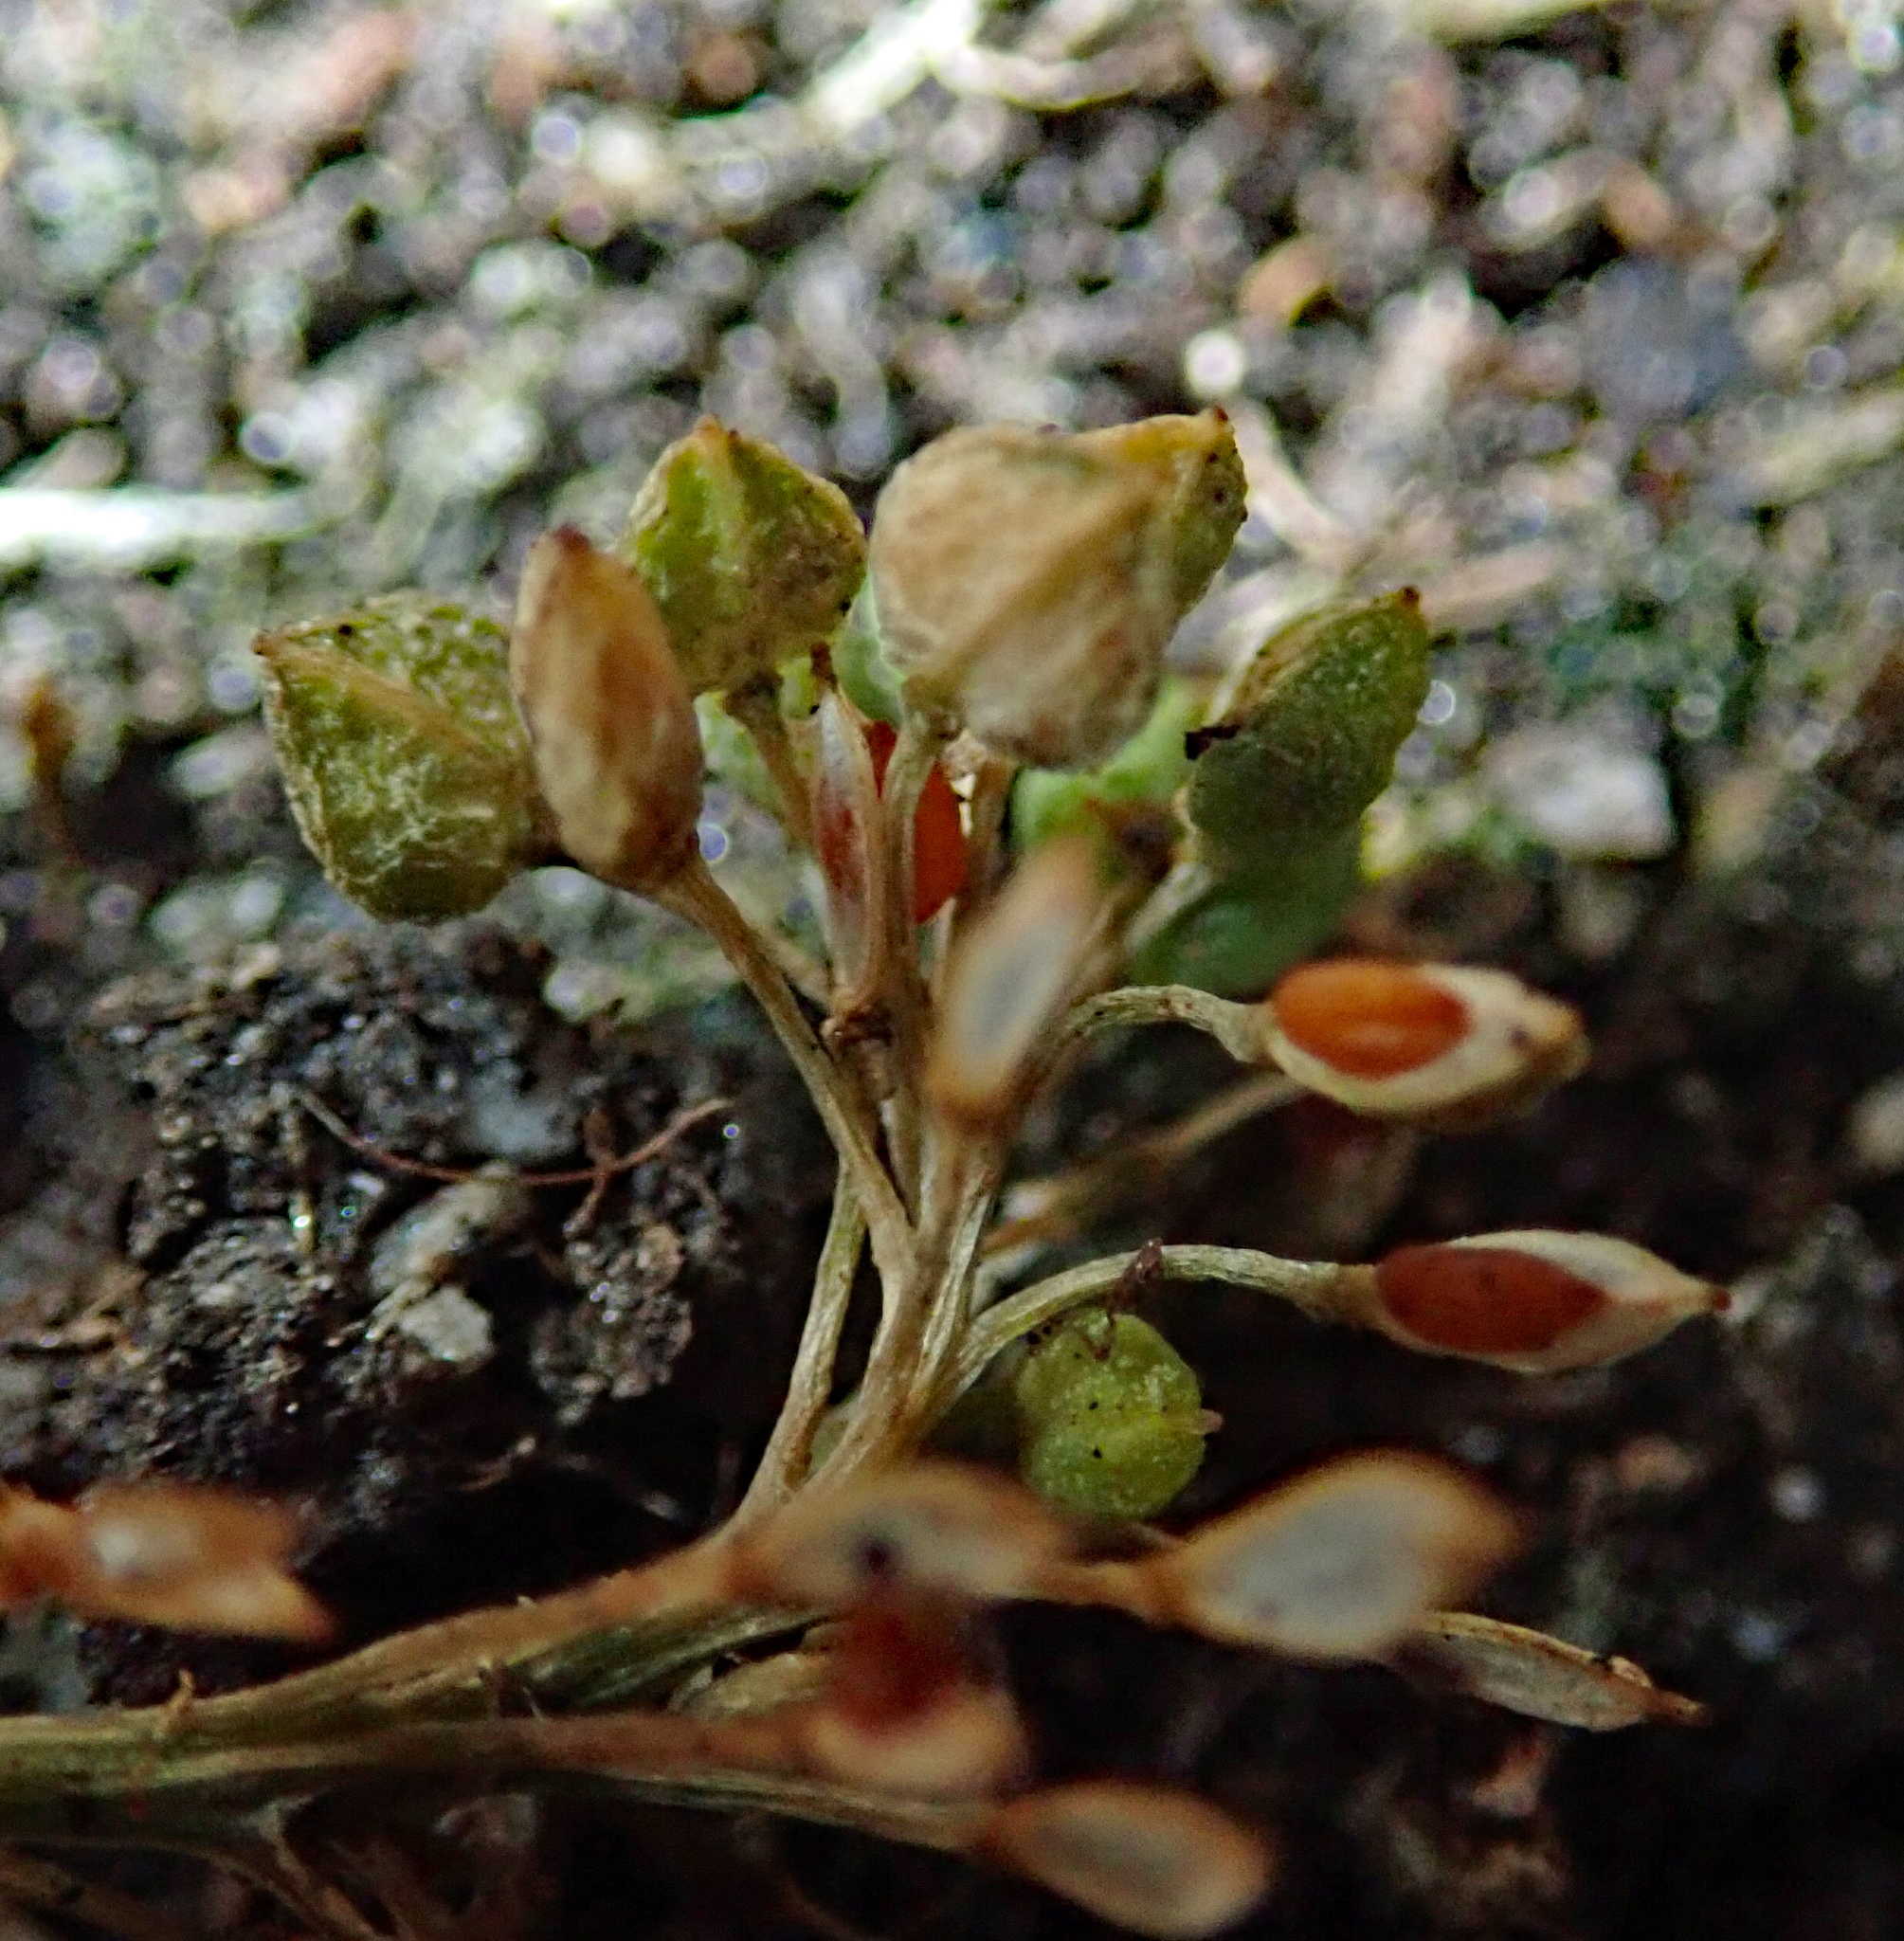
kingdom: Plantae
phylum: Tracheophyta
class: Magnoliopsida
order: Brassicales
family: Brassicaceae
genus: Lepidium
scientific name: Lepidium oligodontum
